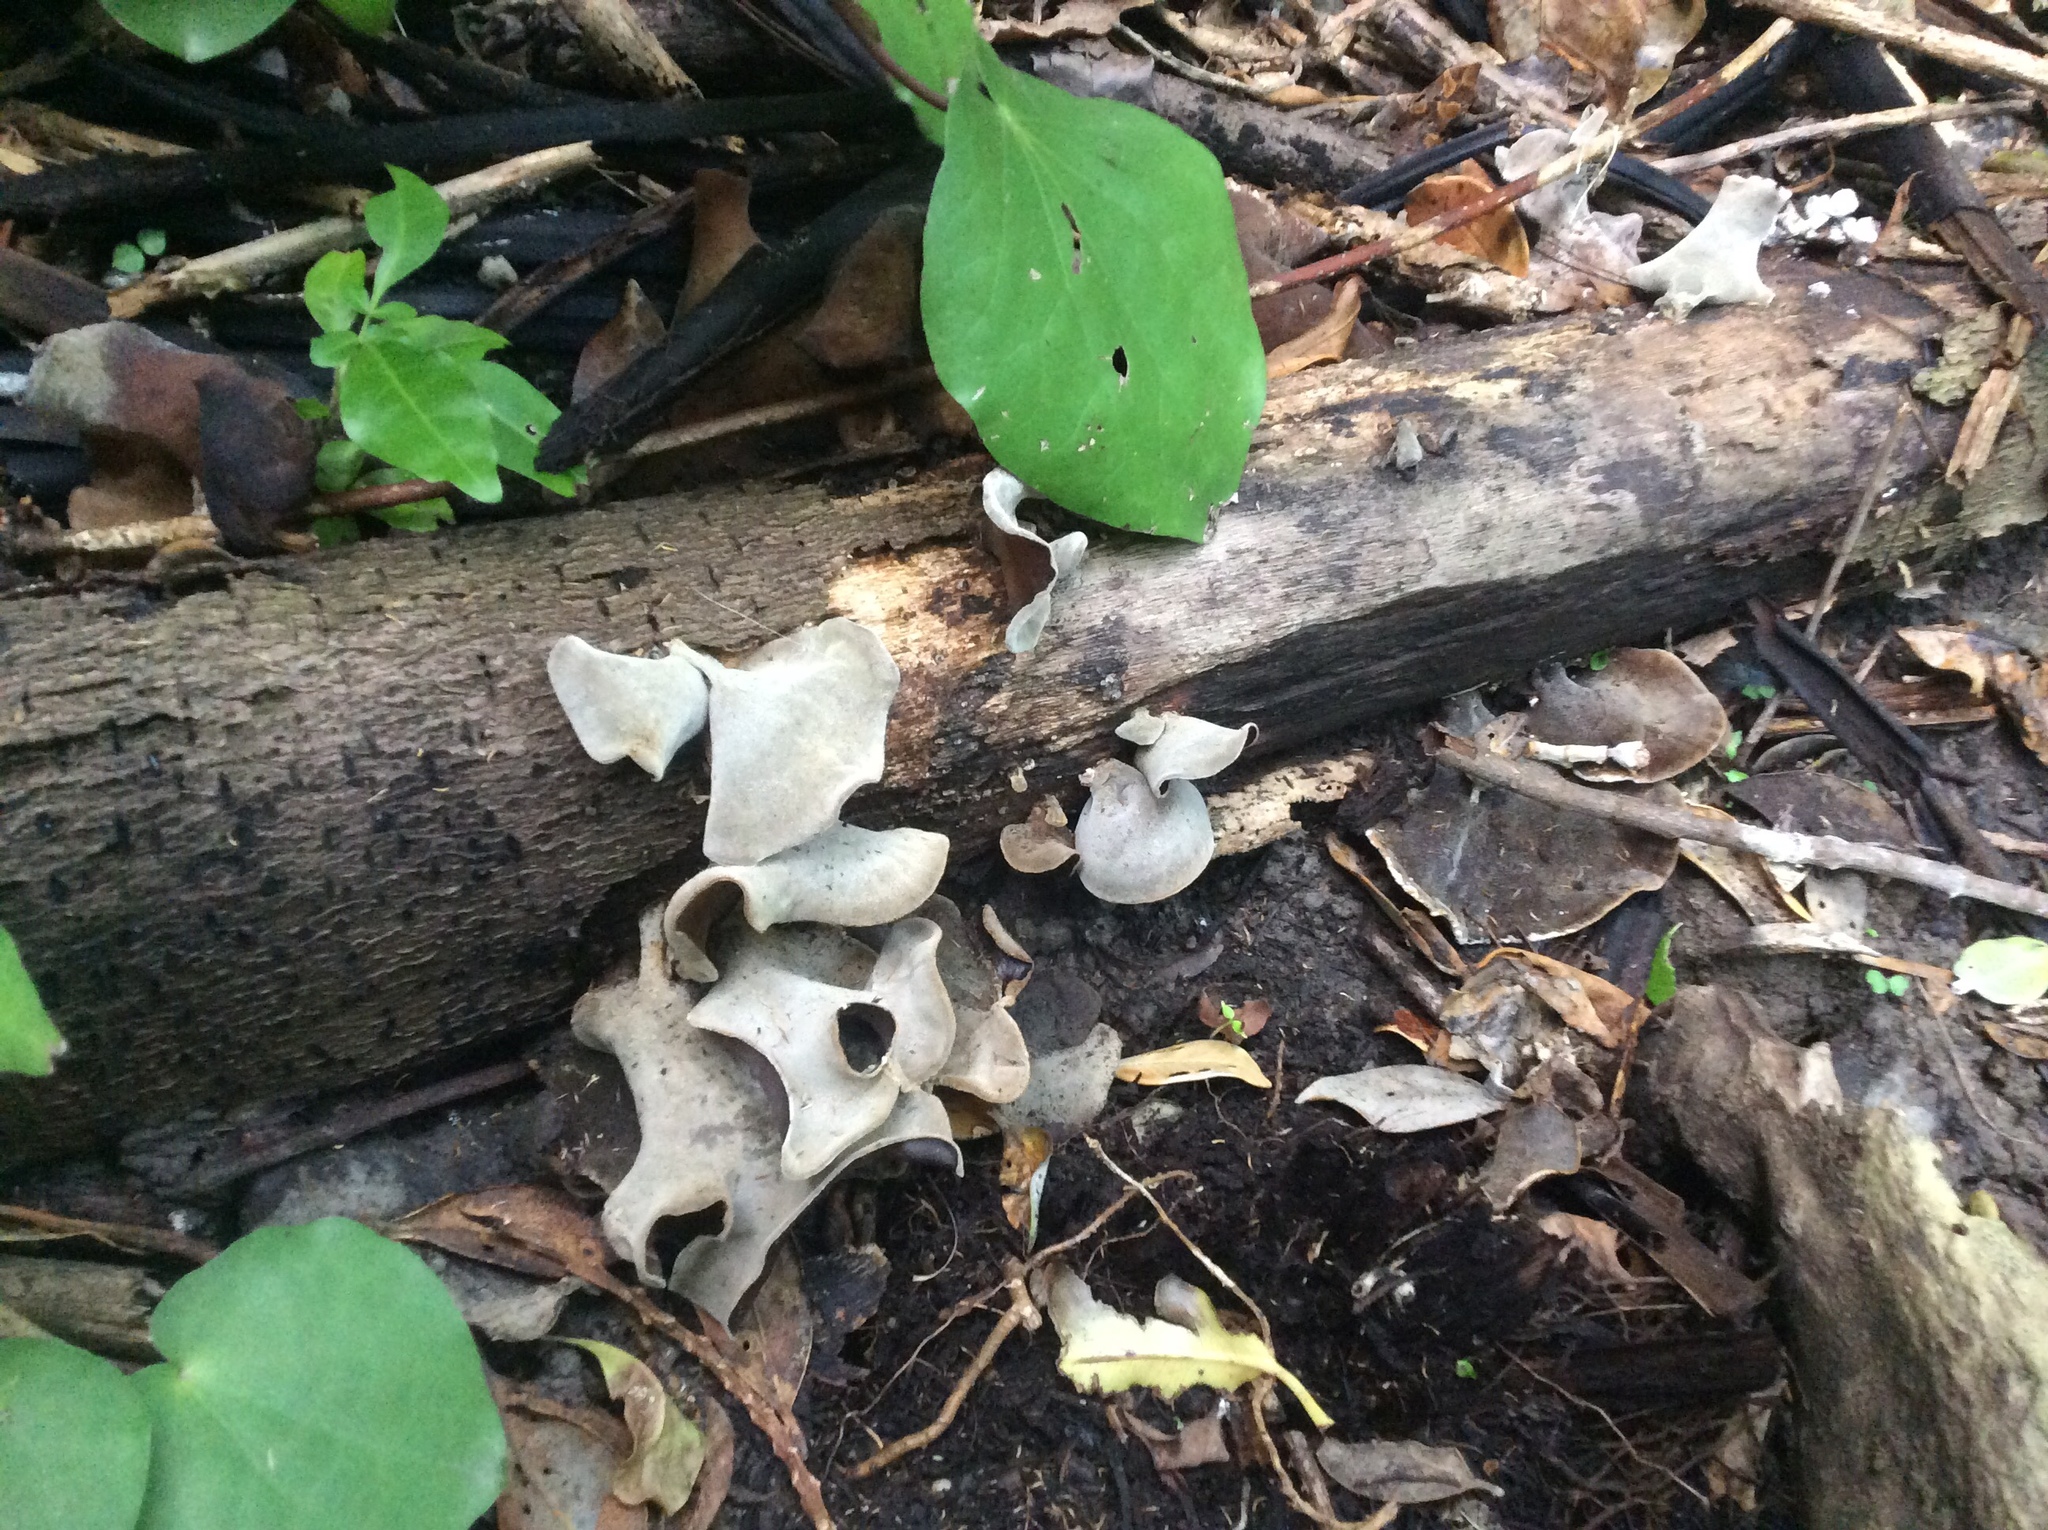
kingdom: Fungi
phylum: Basidiomycota
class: Agaricomycetes
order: Auriculariales
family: Auriculariaceae
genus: Auricularia
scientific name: Auricularia cornea
